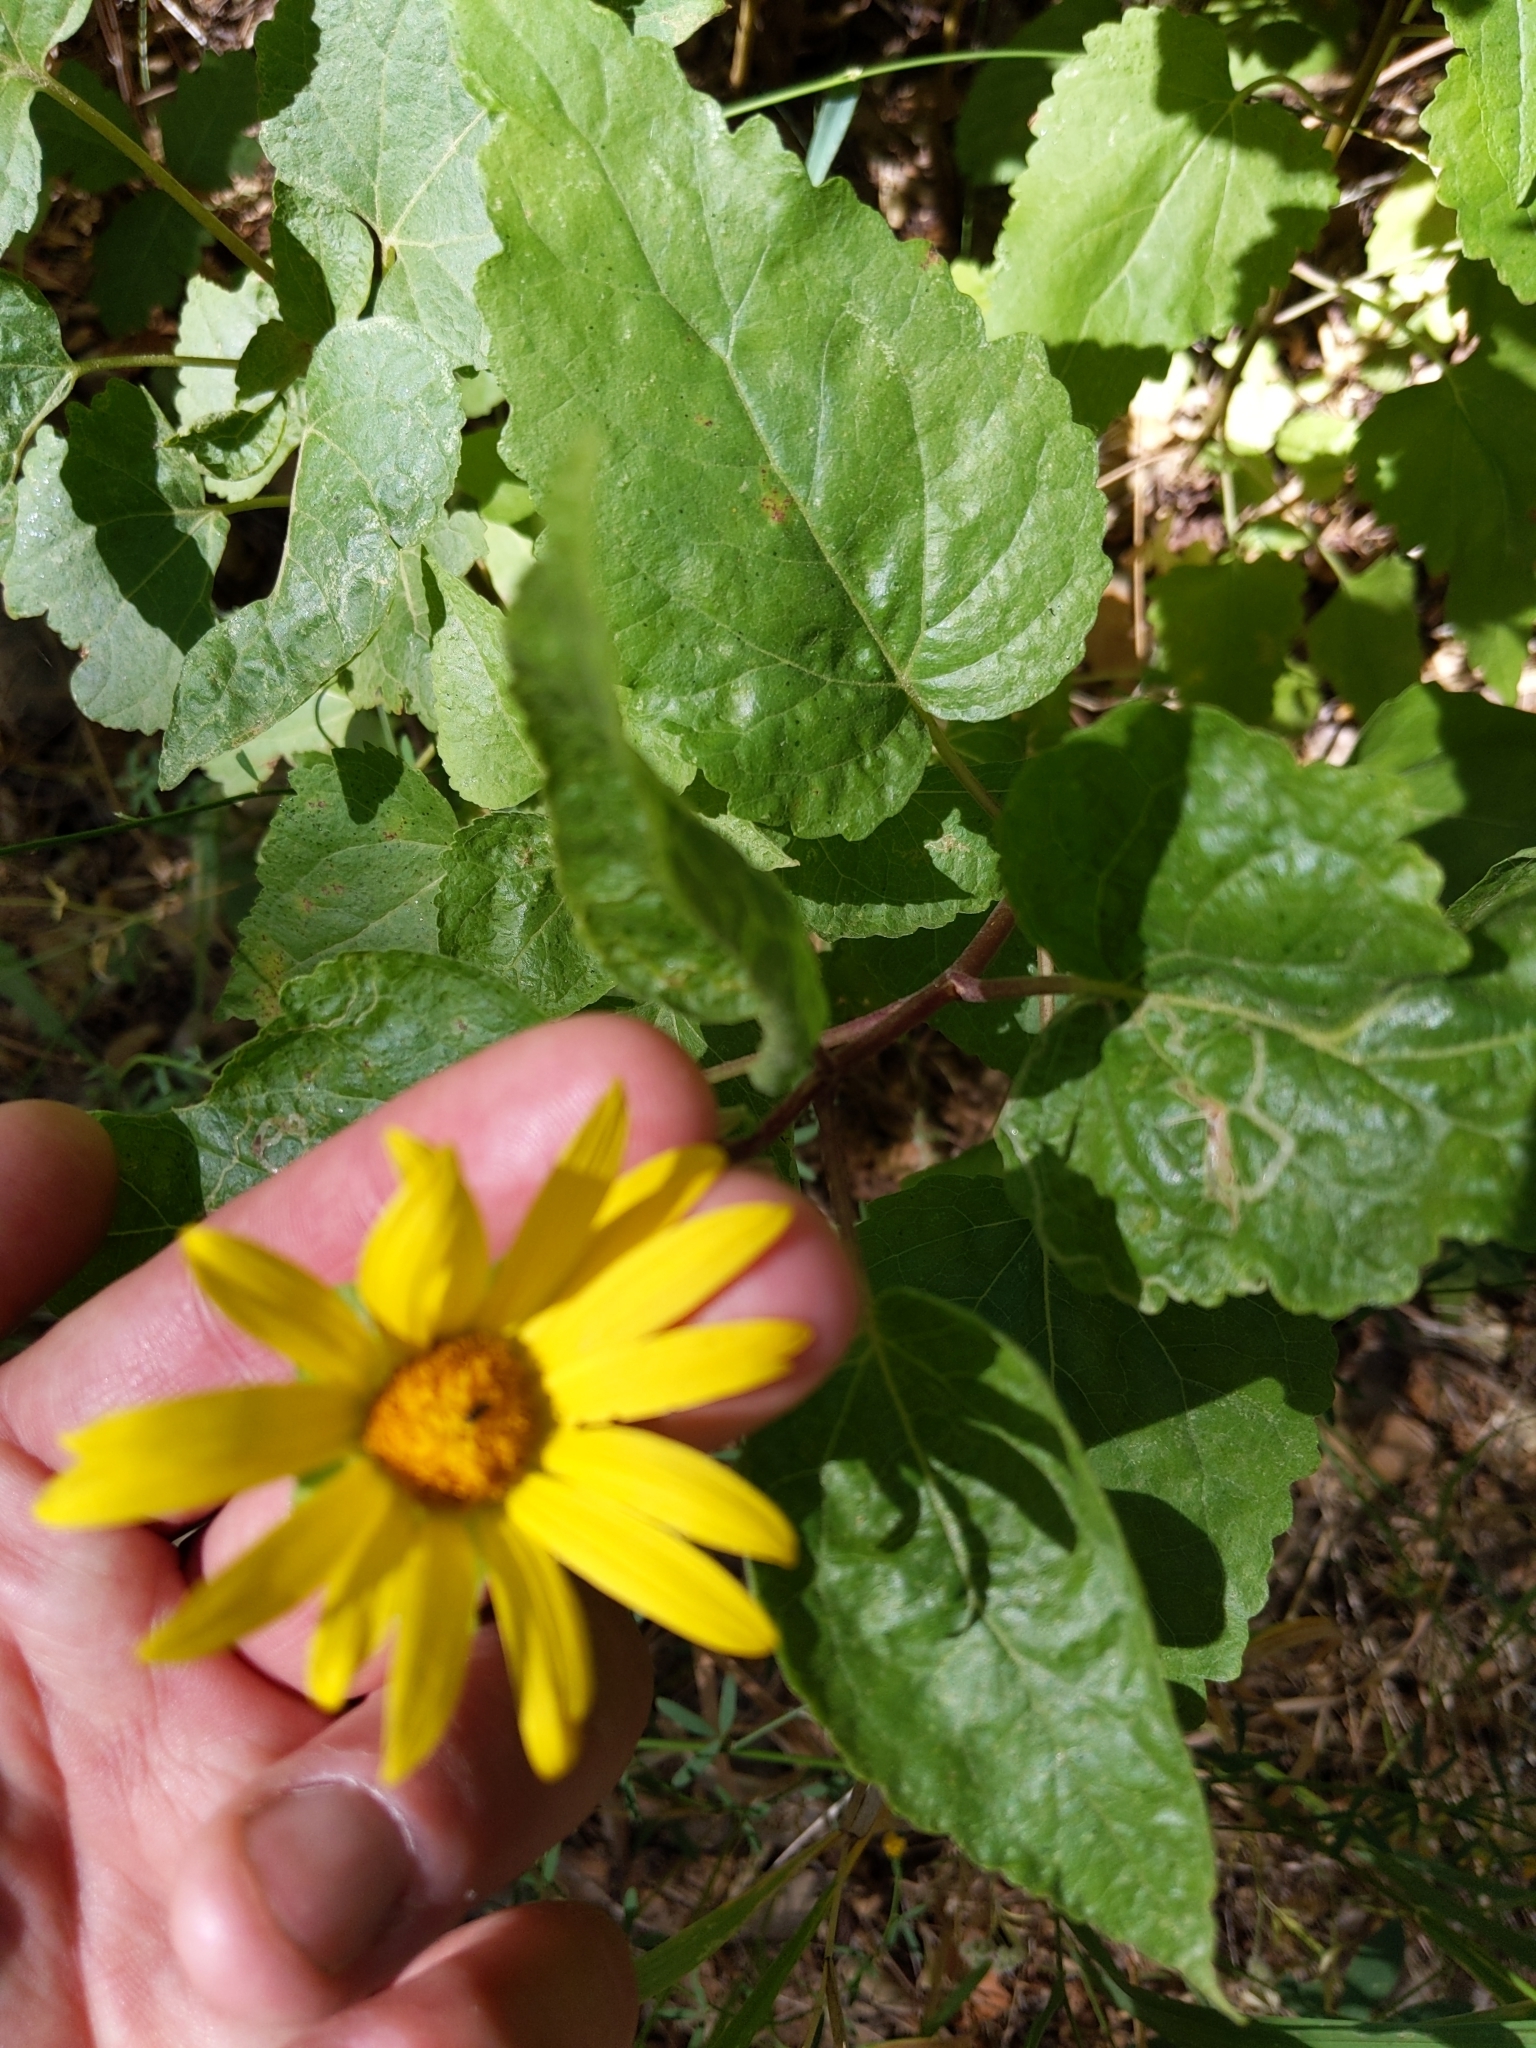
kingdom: Plantae
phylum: Tracheophyta
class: Magnoliopsida
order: Asterales
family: Asteraceae
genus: Venegasia
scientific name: Venegasia carpesioides
